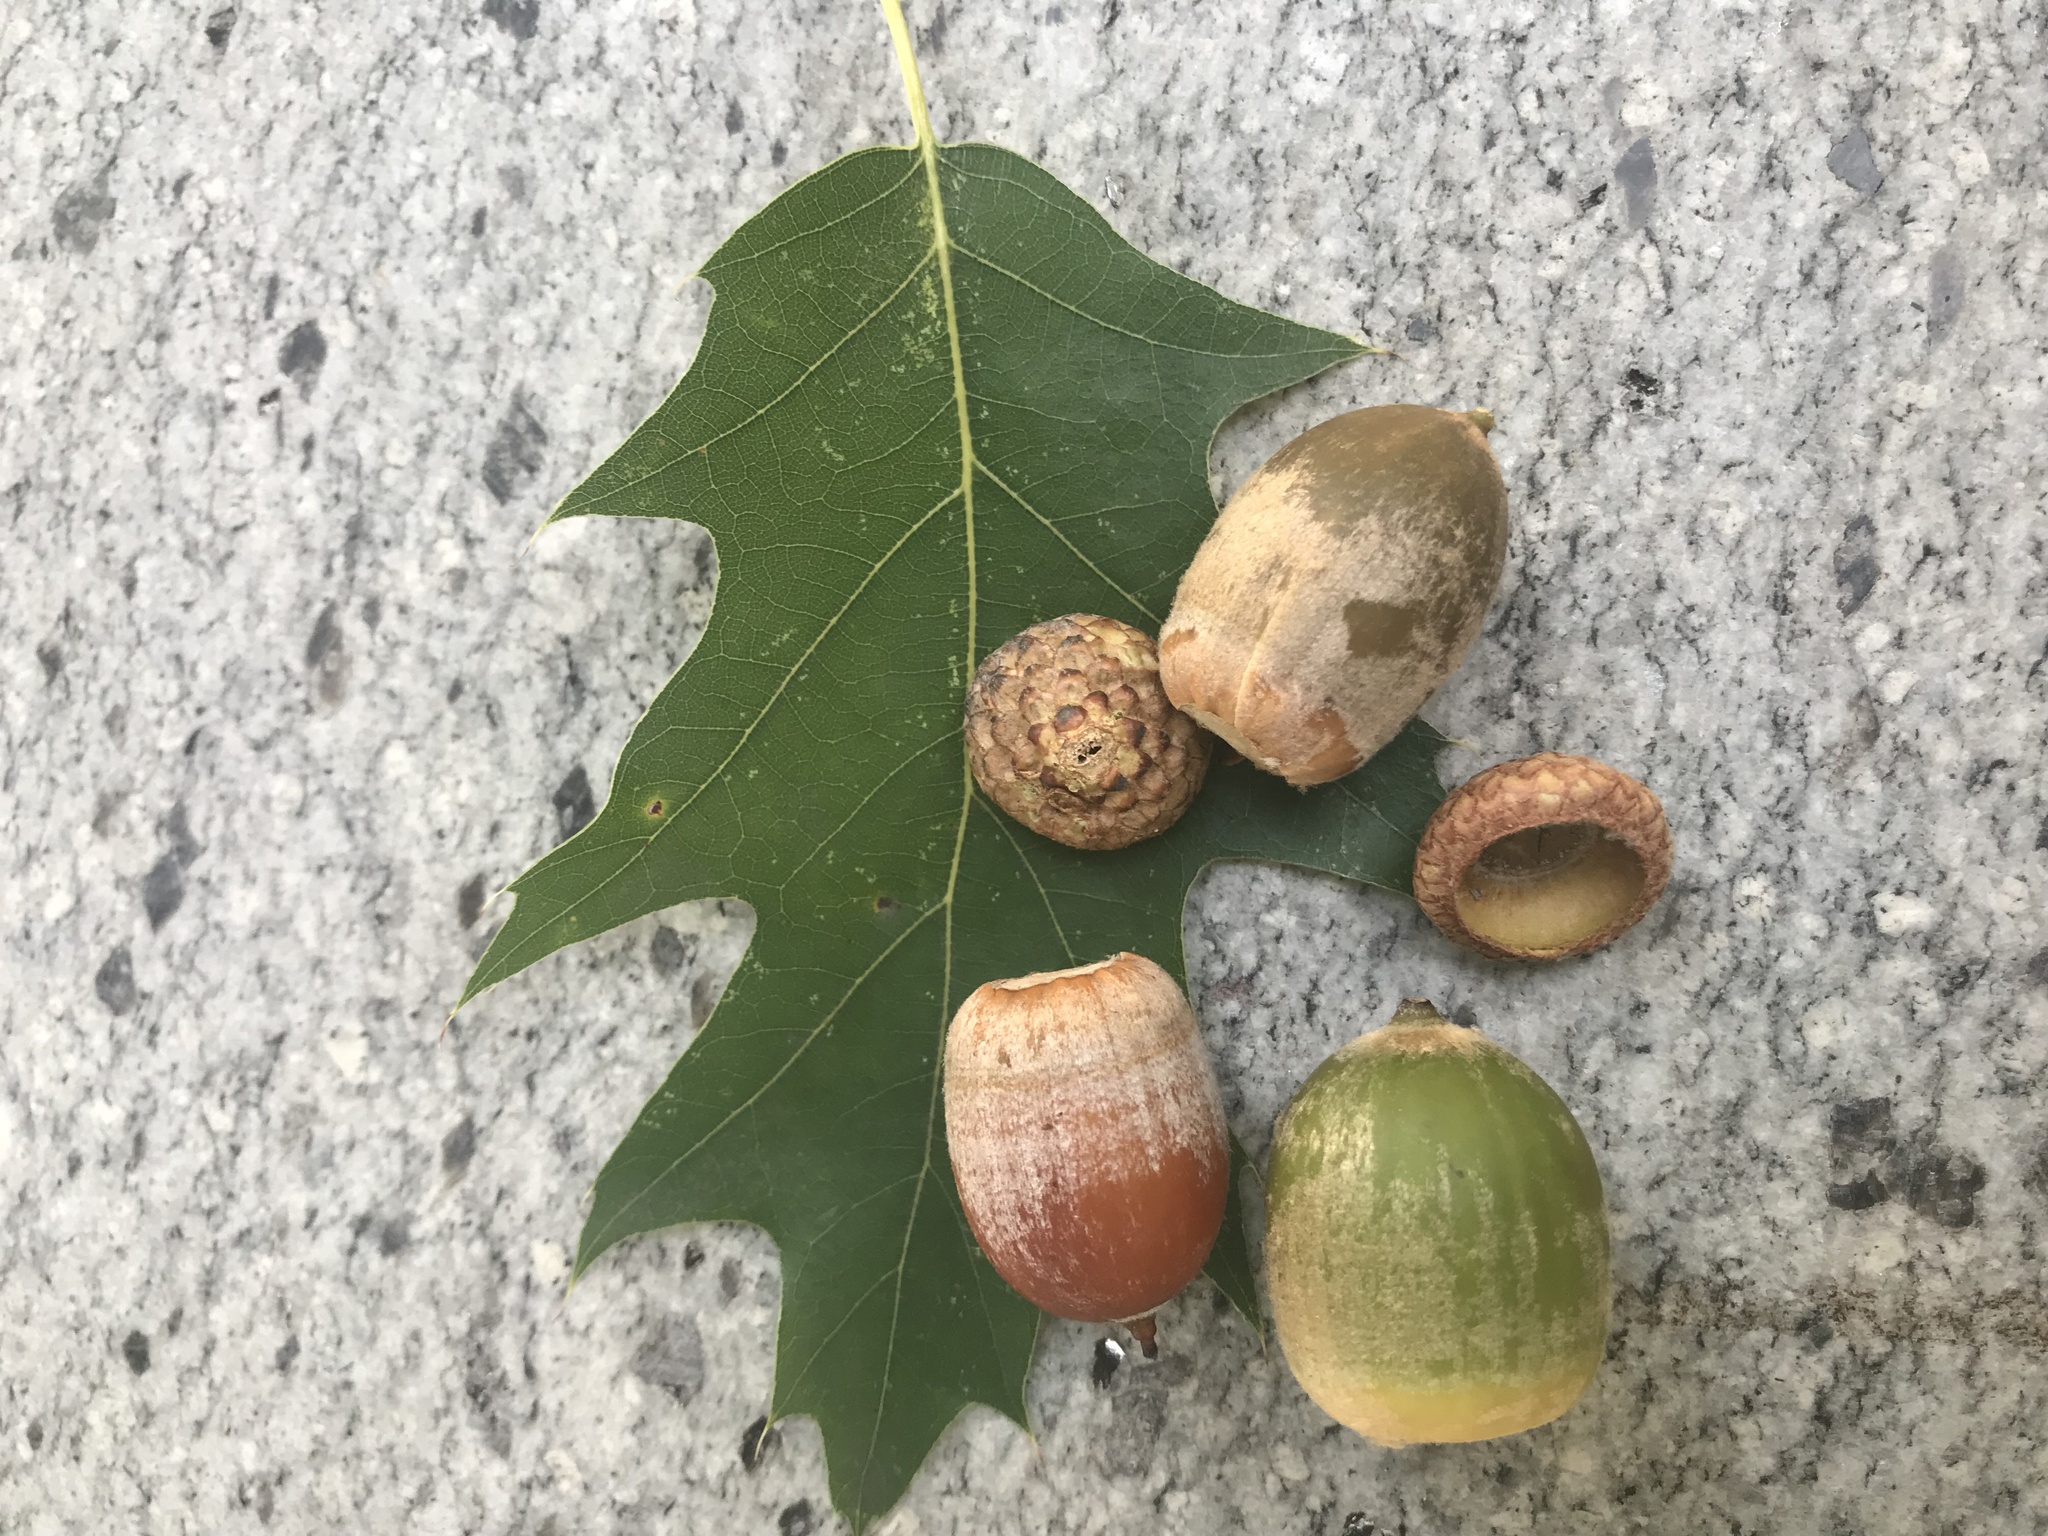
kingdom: Plantae
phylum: Tracheophyta
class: Magnoliopsida
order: Fagales
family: Fagaceae
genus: Quercus
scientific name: Quercus rubra
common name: Red oak
